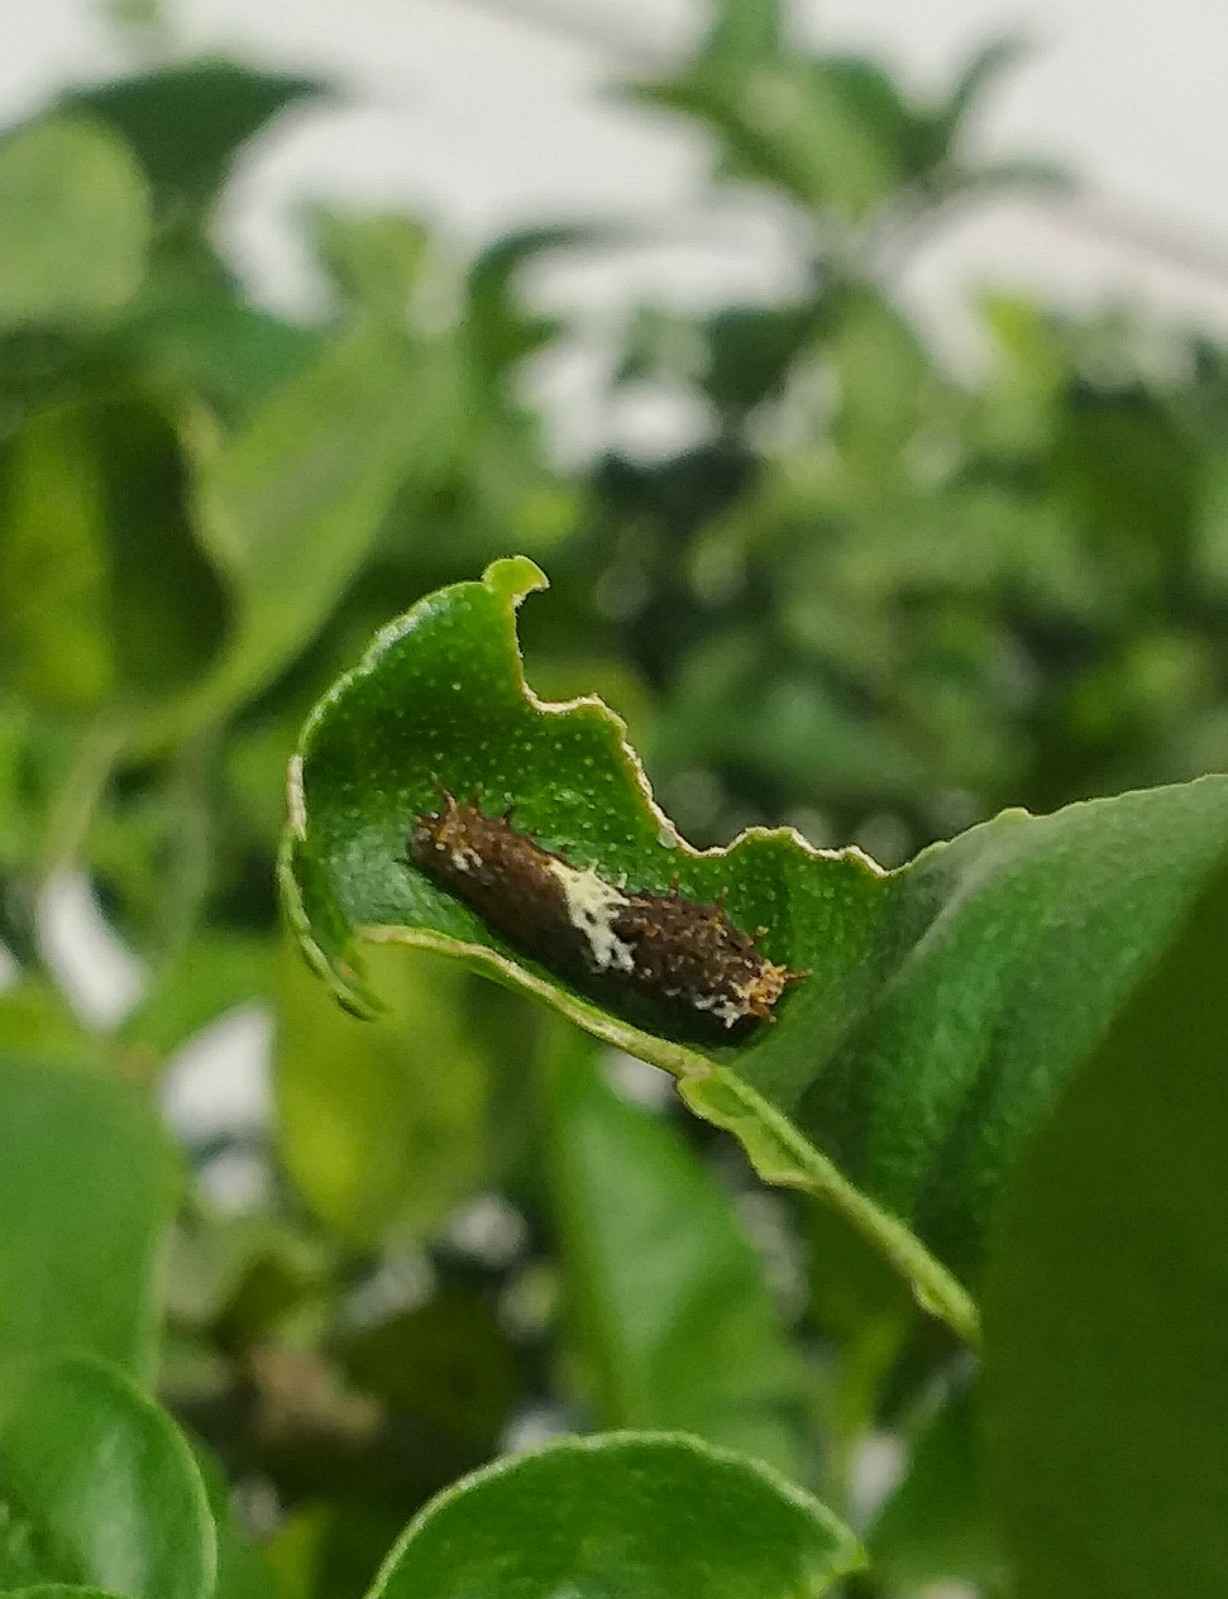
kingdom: Animalia
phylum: Arthropoda
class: Insecta
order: Lepidoptera
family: Papilionidae
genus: Papilio
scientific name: Papilio demoleus
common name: Lime butterfly
